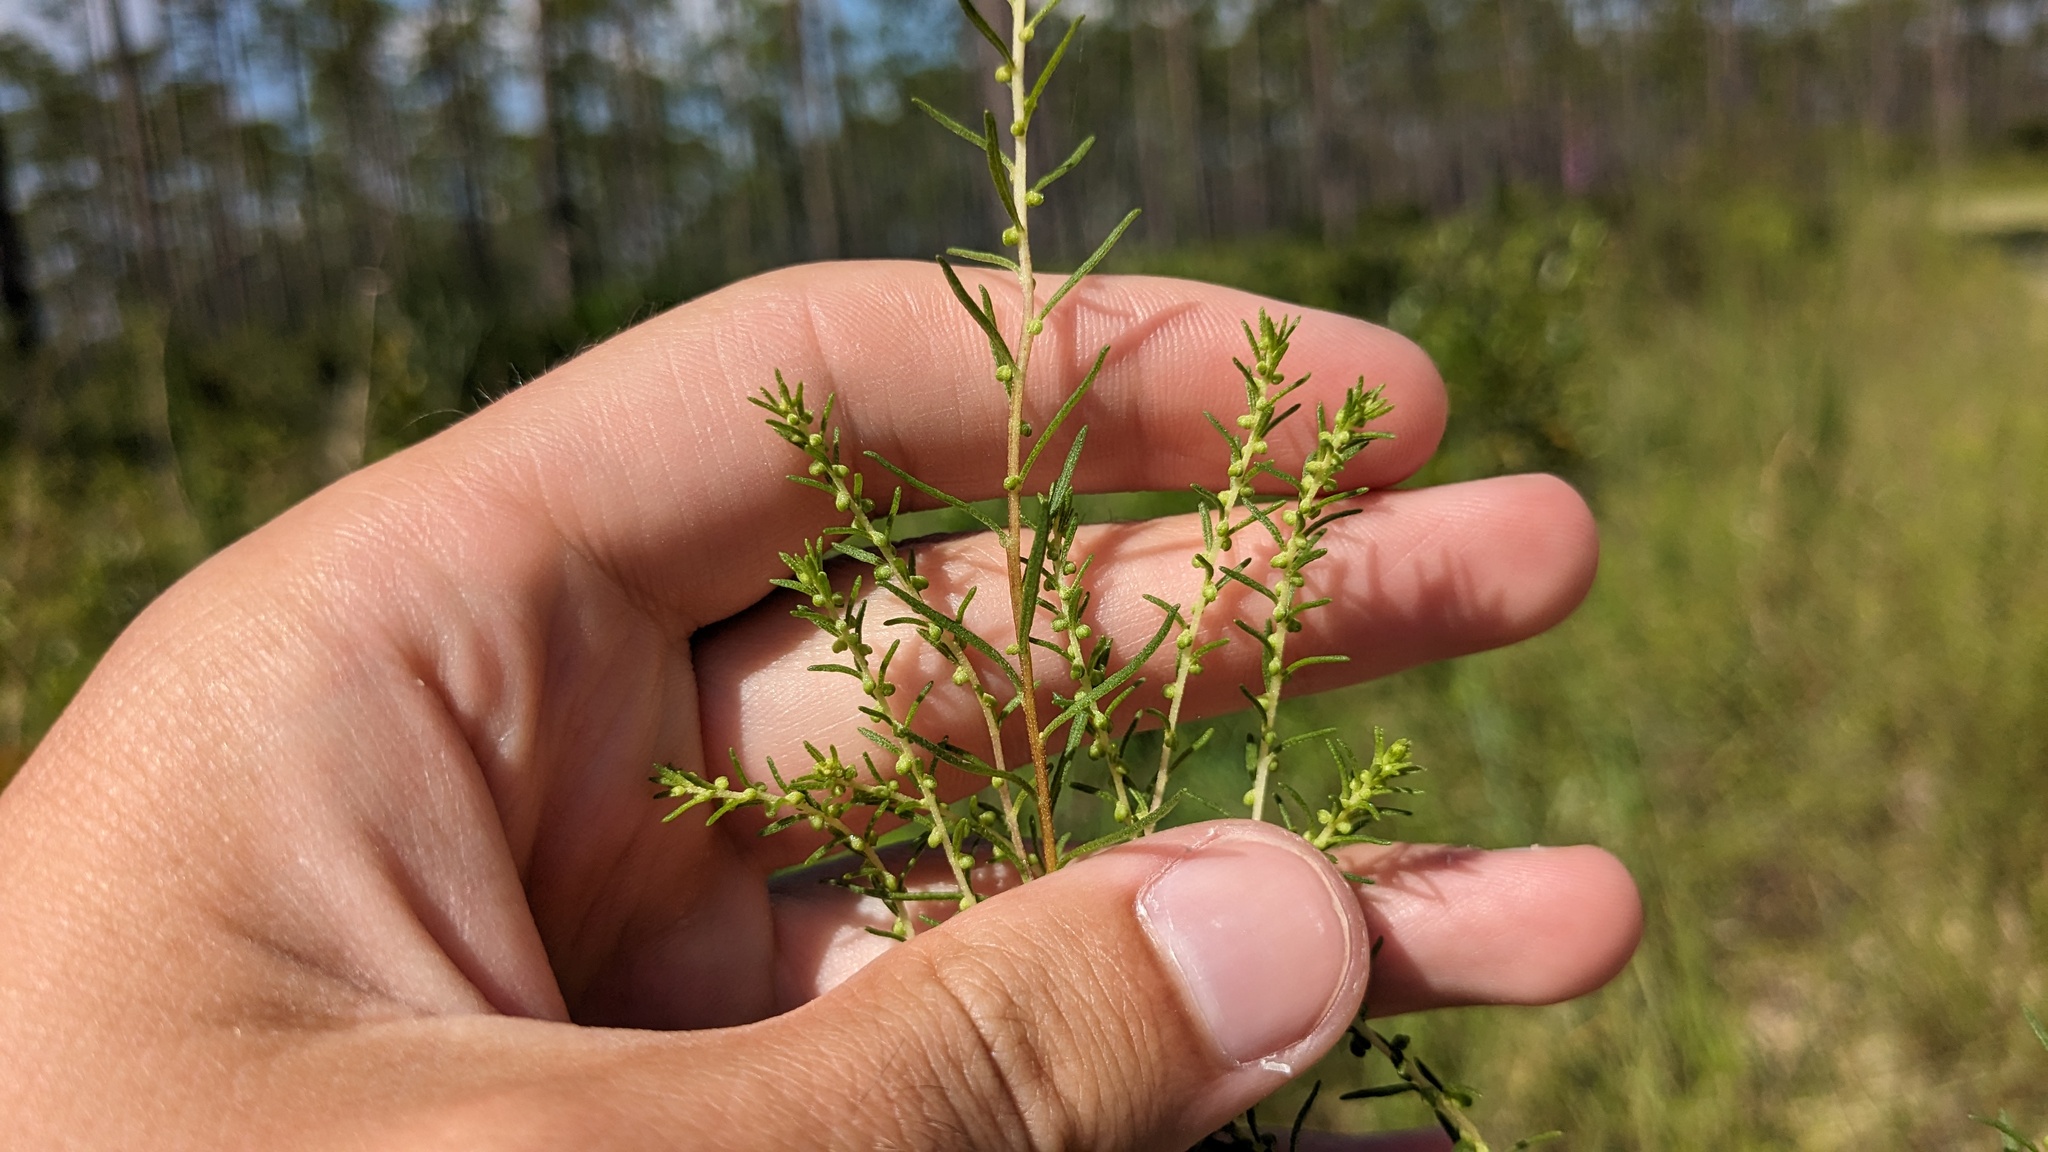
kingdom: Plantae
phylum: Tracheophyta
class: Magnoliopsida
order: Asterales
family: Asteraceae
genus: Iva
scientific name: Iva microcephala
